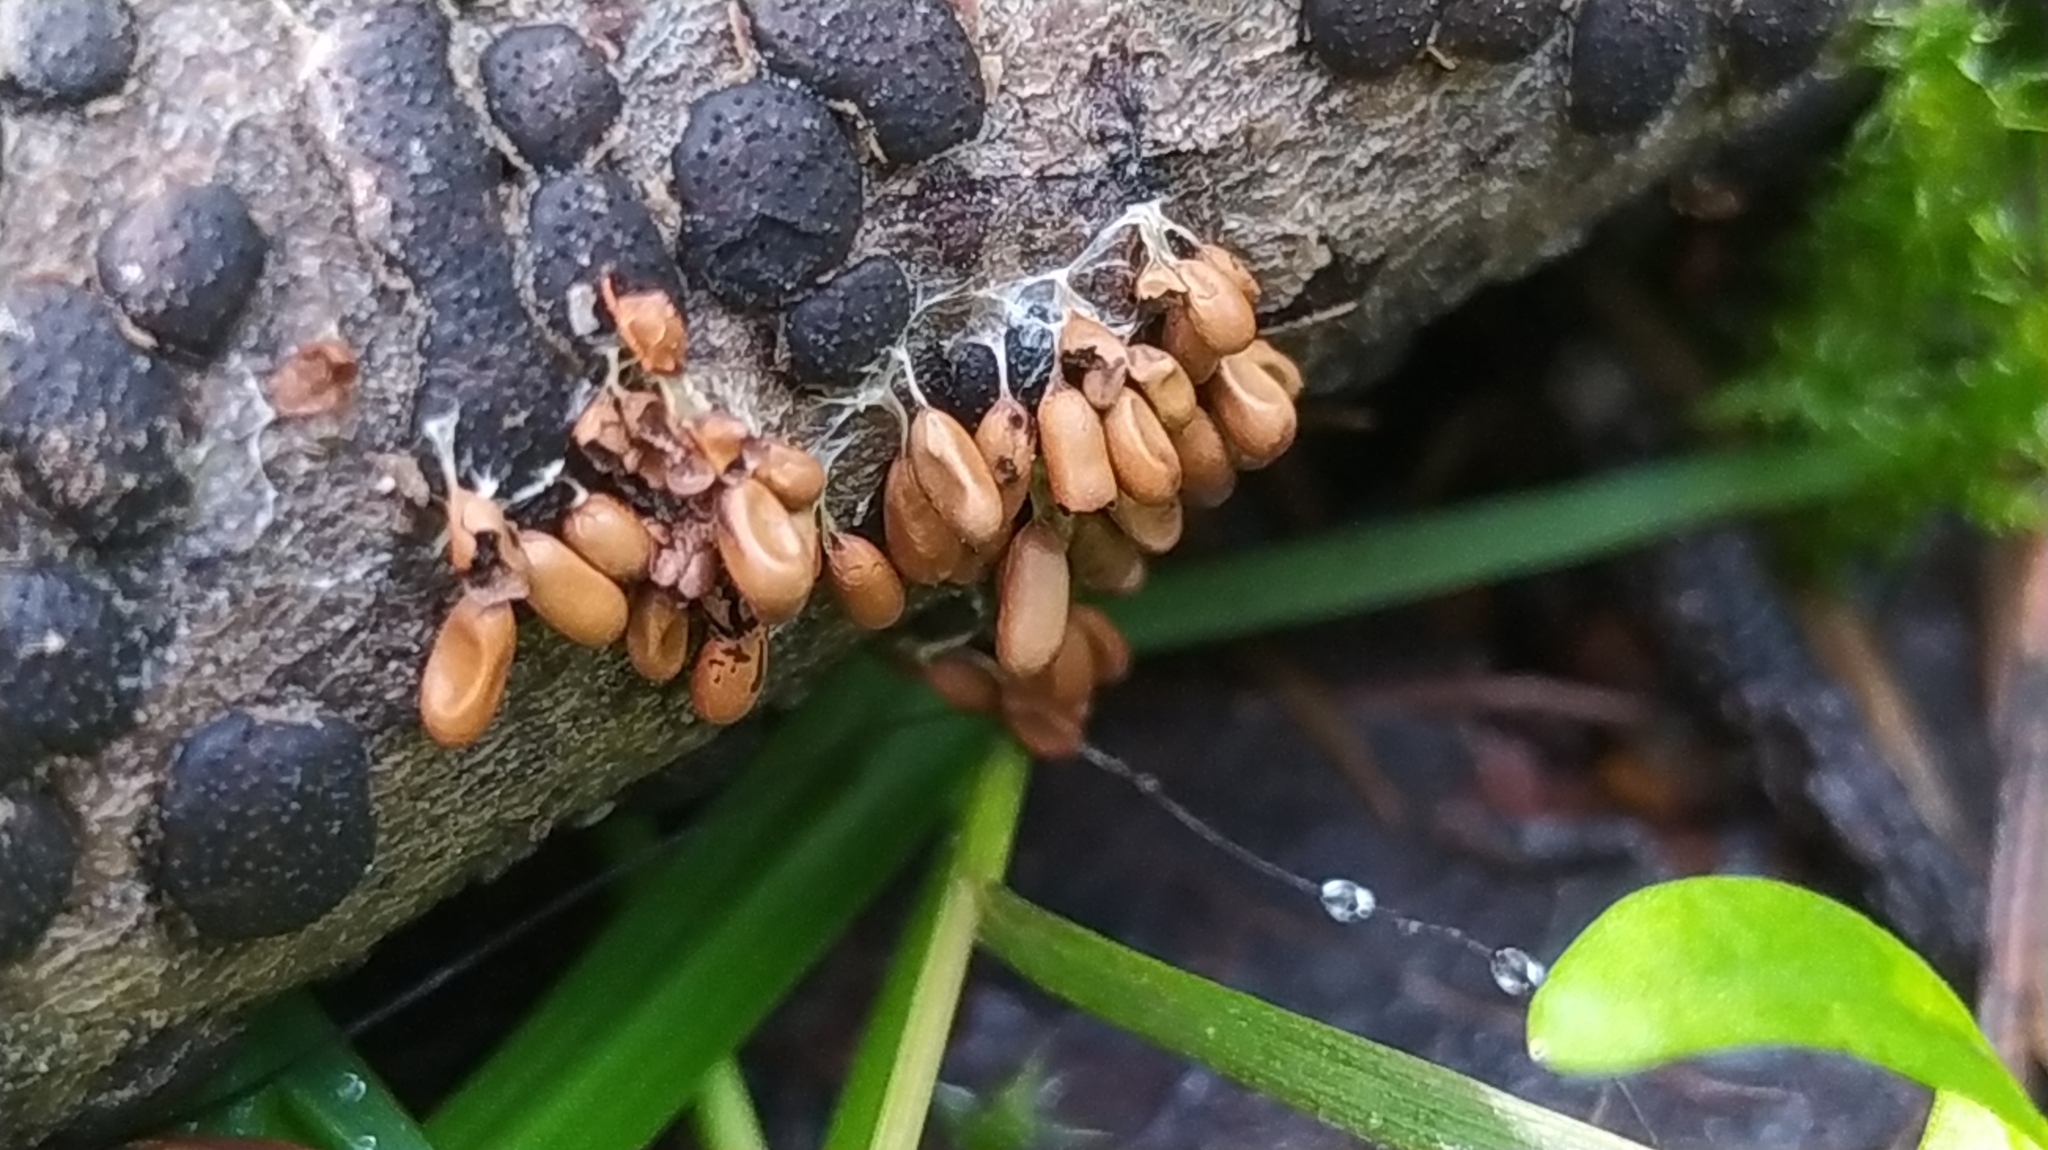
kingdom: Protozoa
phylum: Mycetozoa
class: Myxomycetes
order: Physarales
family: Physaraceae
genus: Leocarpus
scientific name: Leocarpus fragilis
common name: Insect-egg slime
